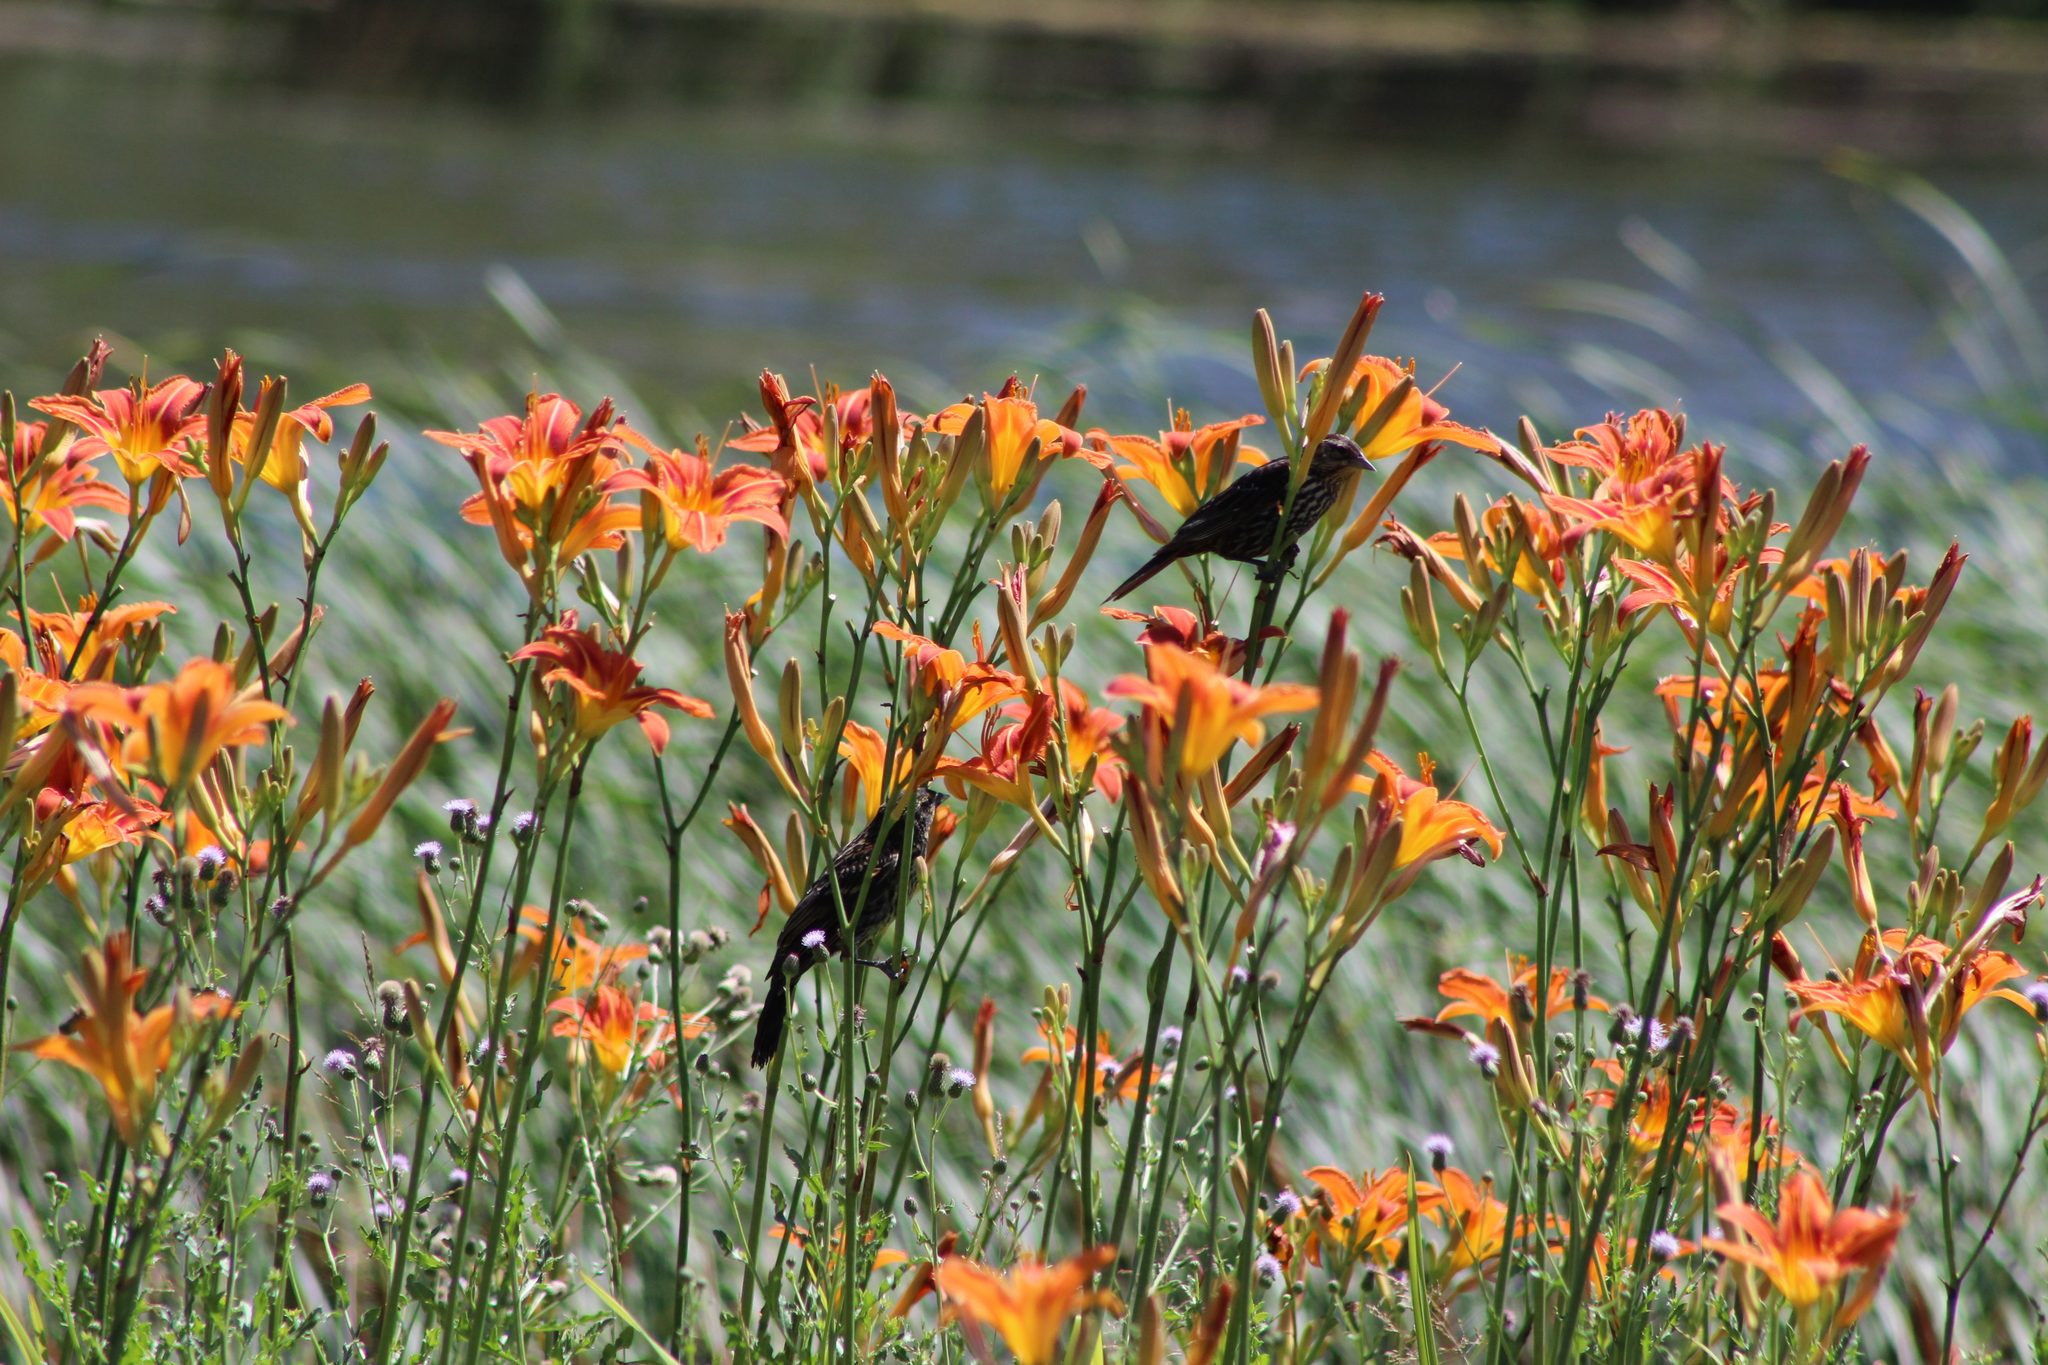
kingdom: Animalia
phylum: Chordata
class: Aves
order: Passeriformes
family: Icteridae
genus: Agelaius
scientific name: Agelaius phoeniceus
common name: Red-winged blackbird
